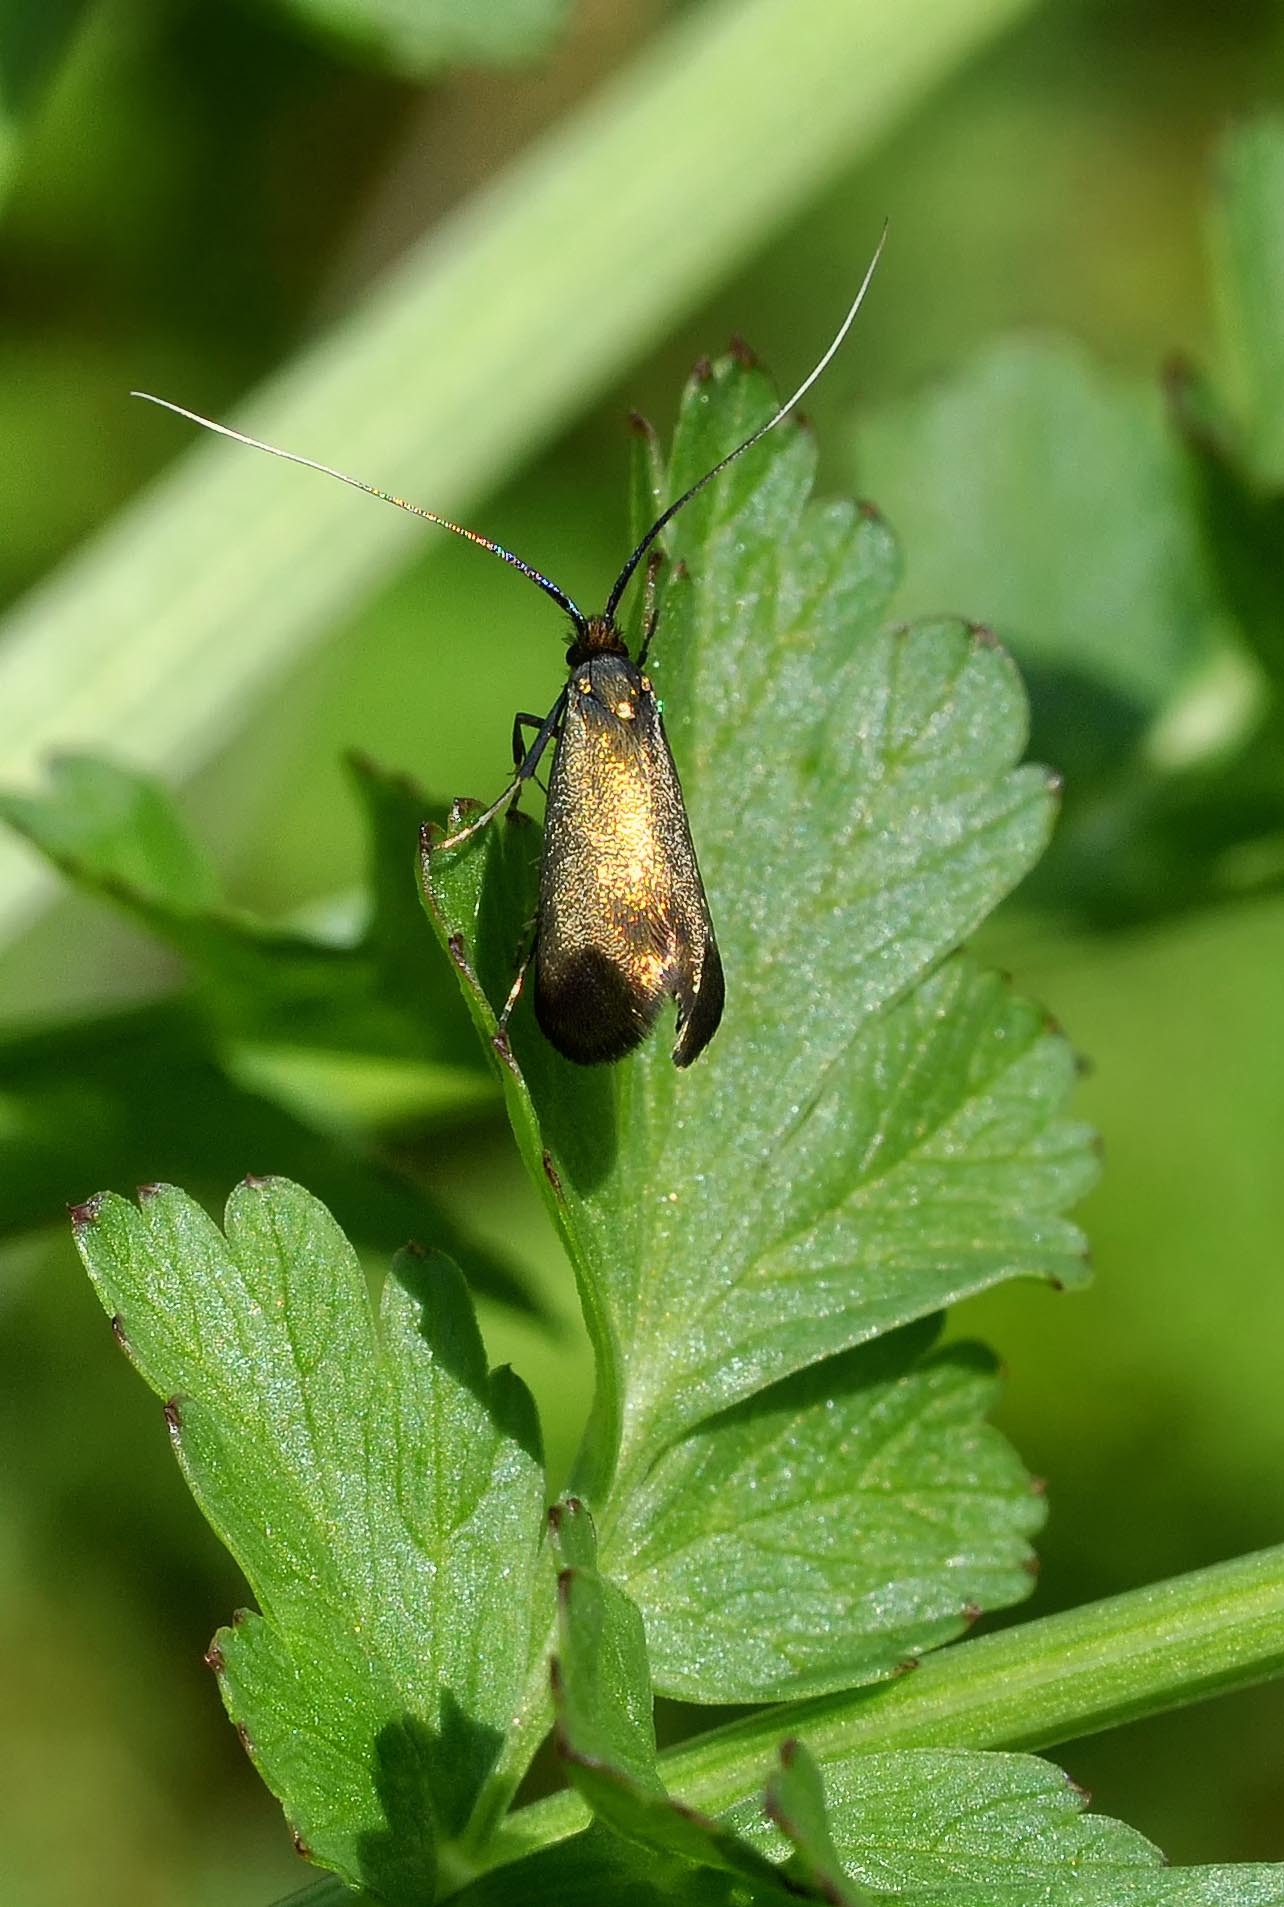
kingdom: Animalia
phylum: Arthropoda
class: Insecta
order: Lepidoptera
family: Adelidae
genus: Adela
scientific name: Adela viridella
